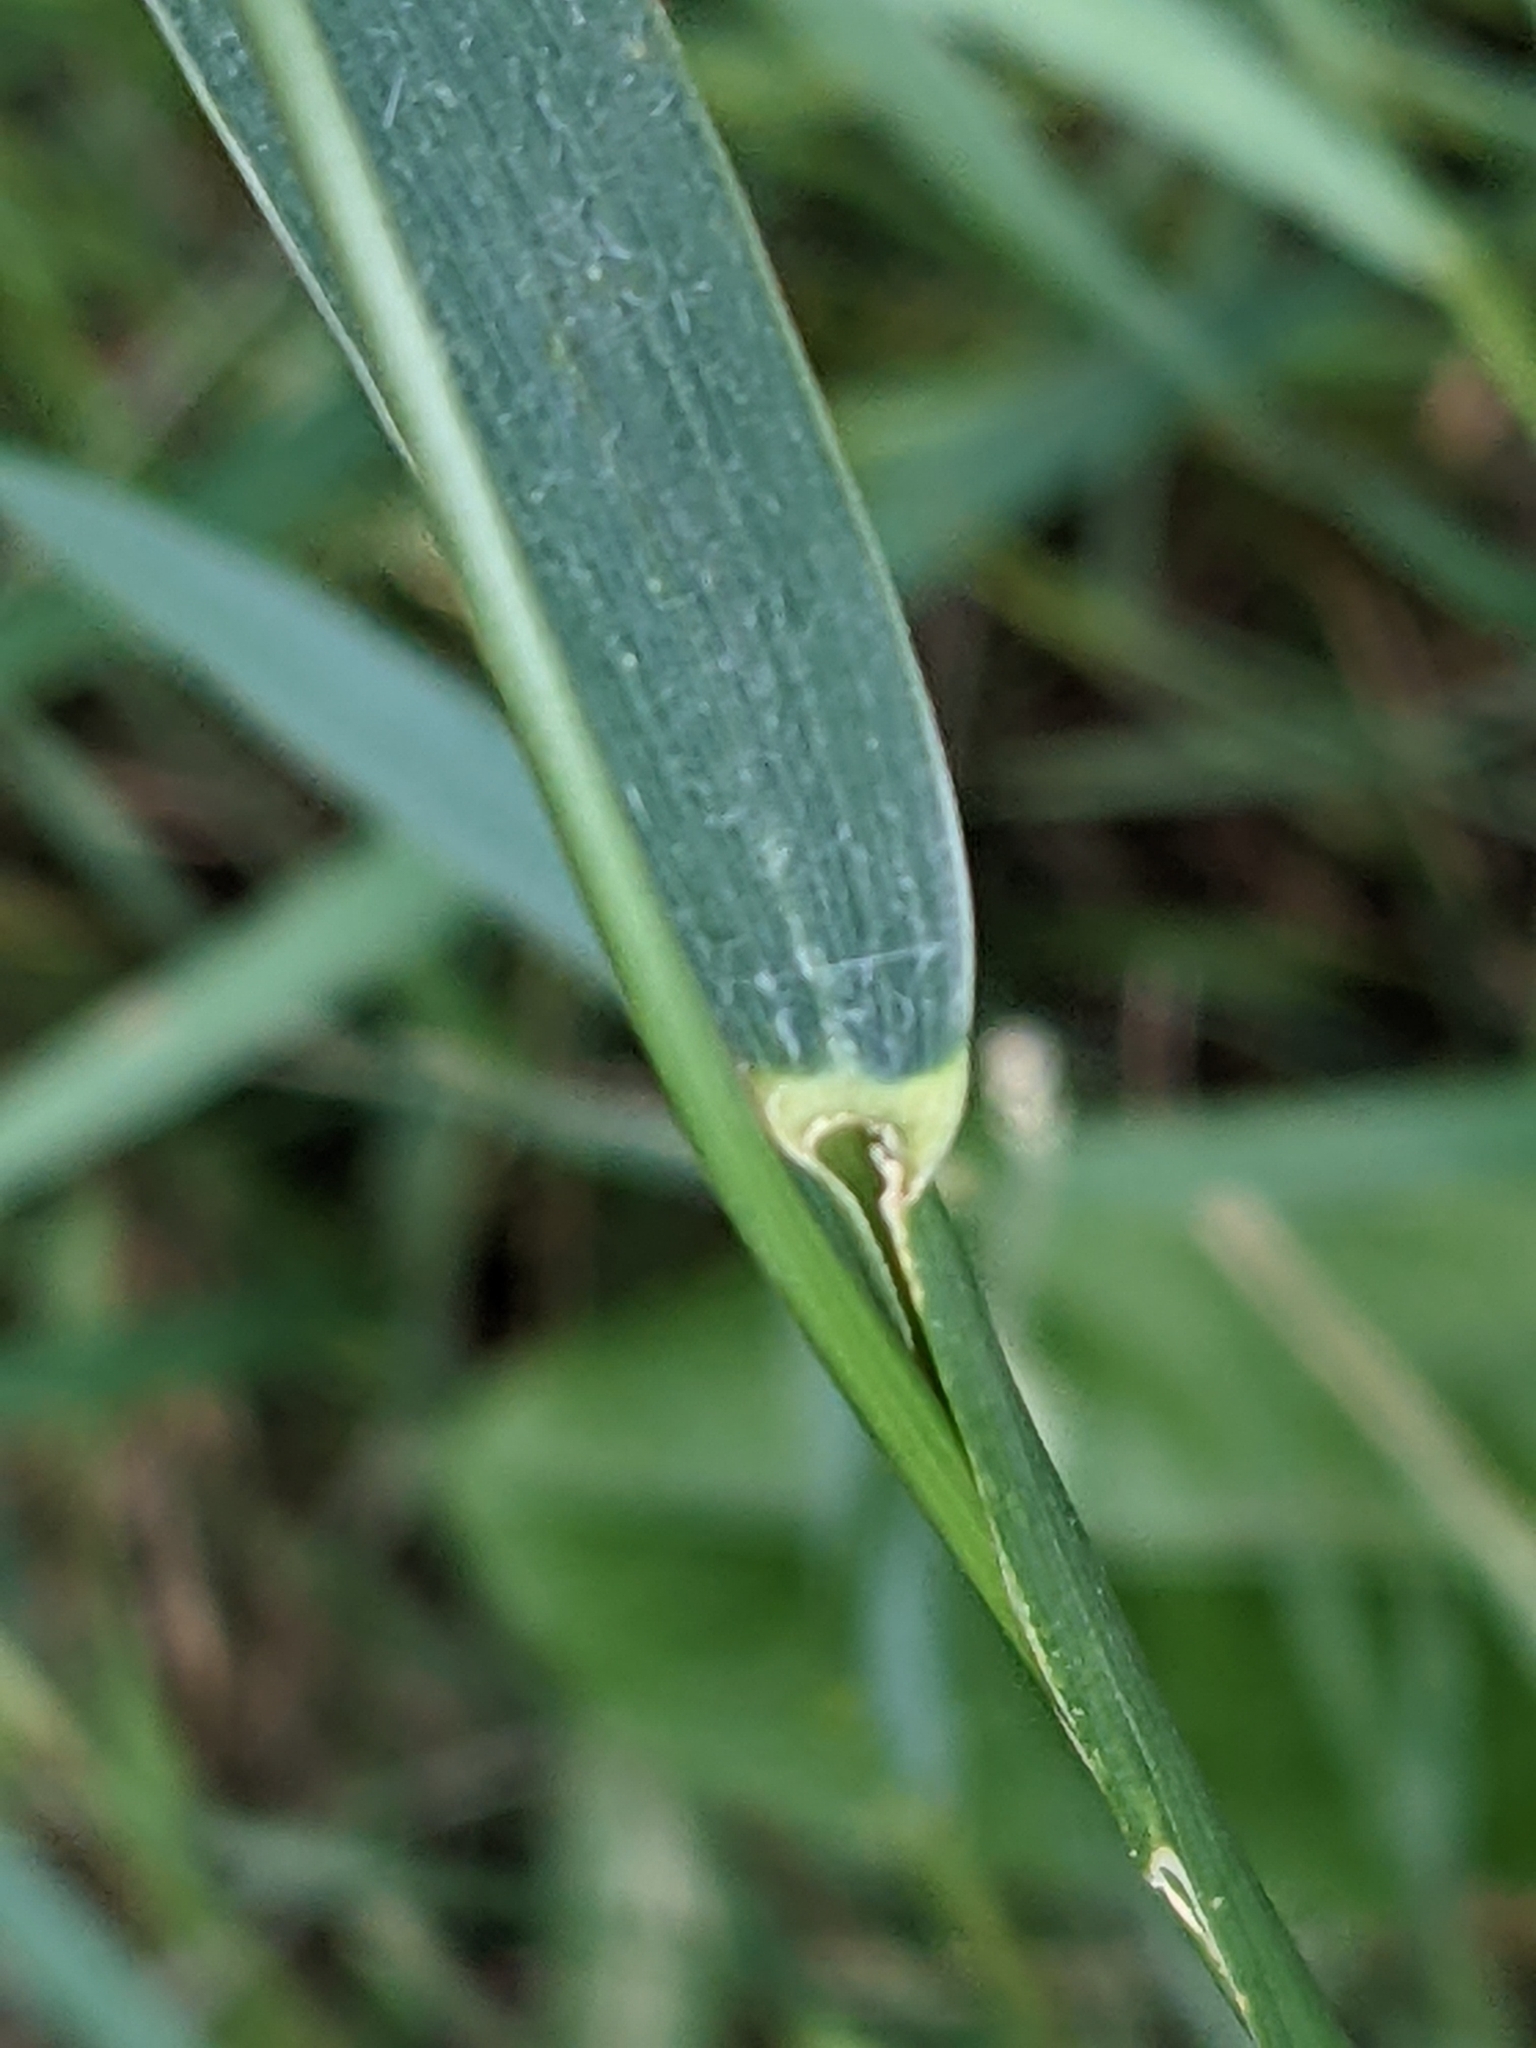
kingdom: Plantae
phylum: Tracheophyta
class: Liliopsida
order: Poales
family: Poaceae
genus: Elymus
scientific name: Elymus repens
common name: Quackgrass
